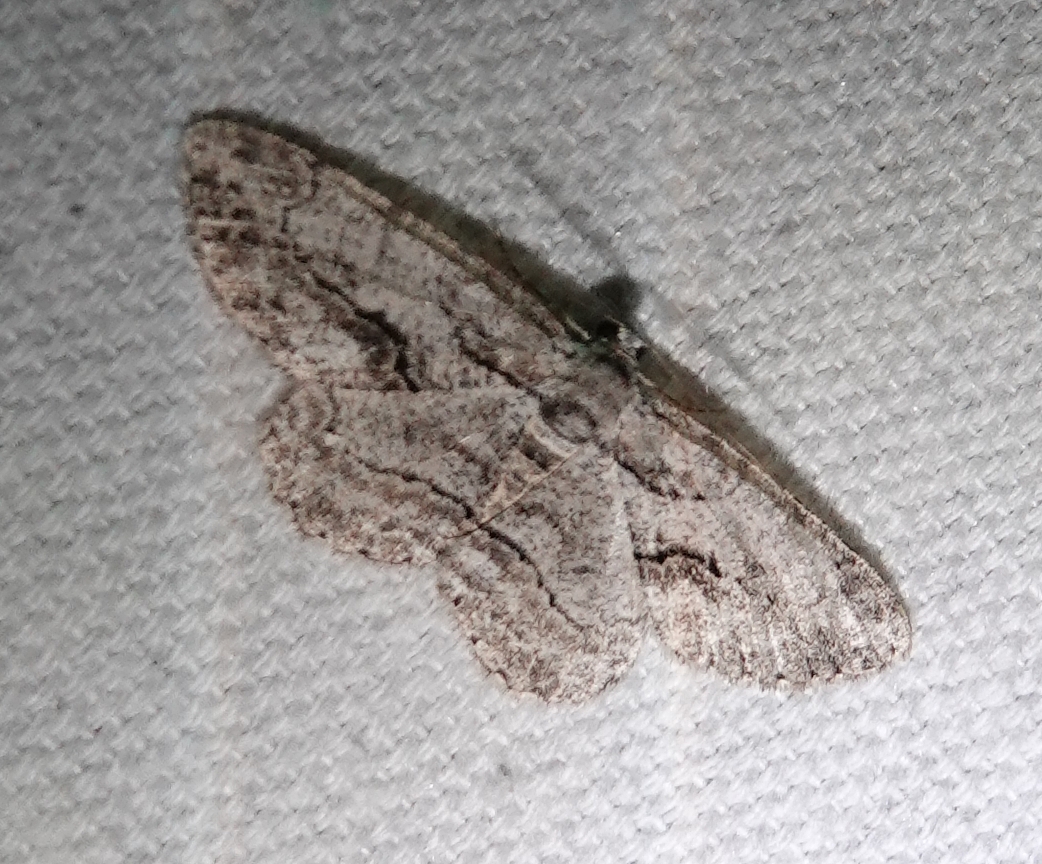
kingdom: Animalia
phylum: Arthropoda
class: Insecta
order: Lepidoptera
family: Geometridae
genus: Anavitrinella
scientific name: Anavitrinella pampinaria
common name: Common gray
